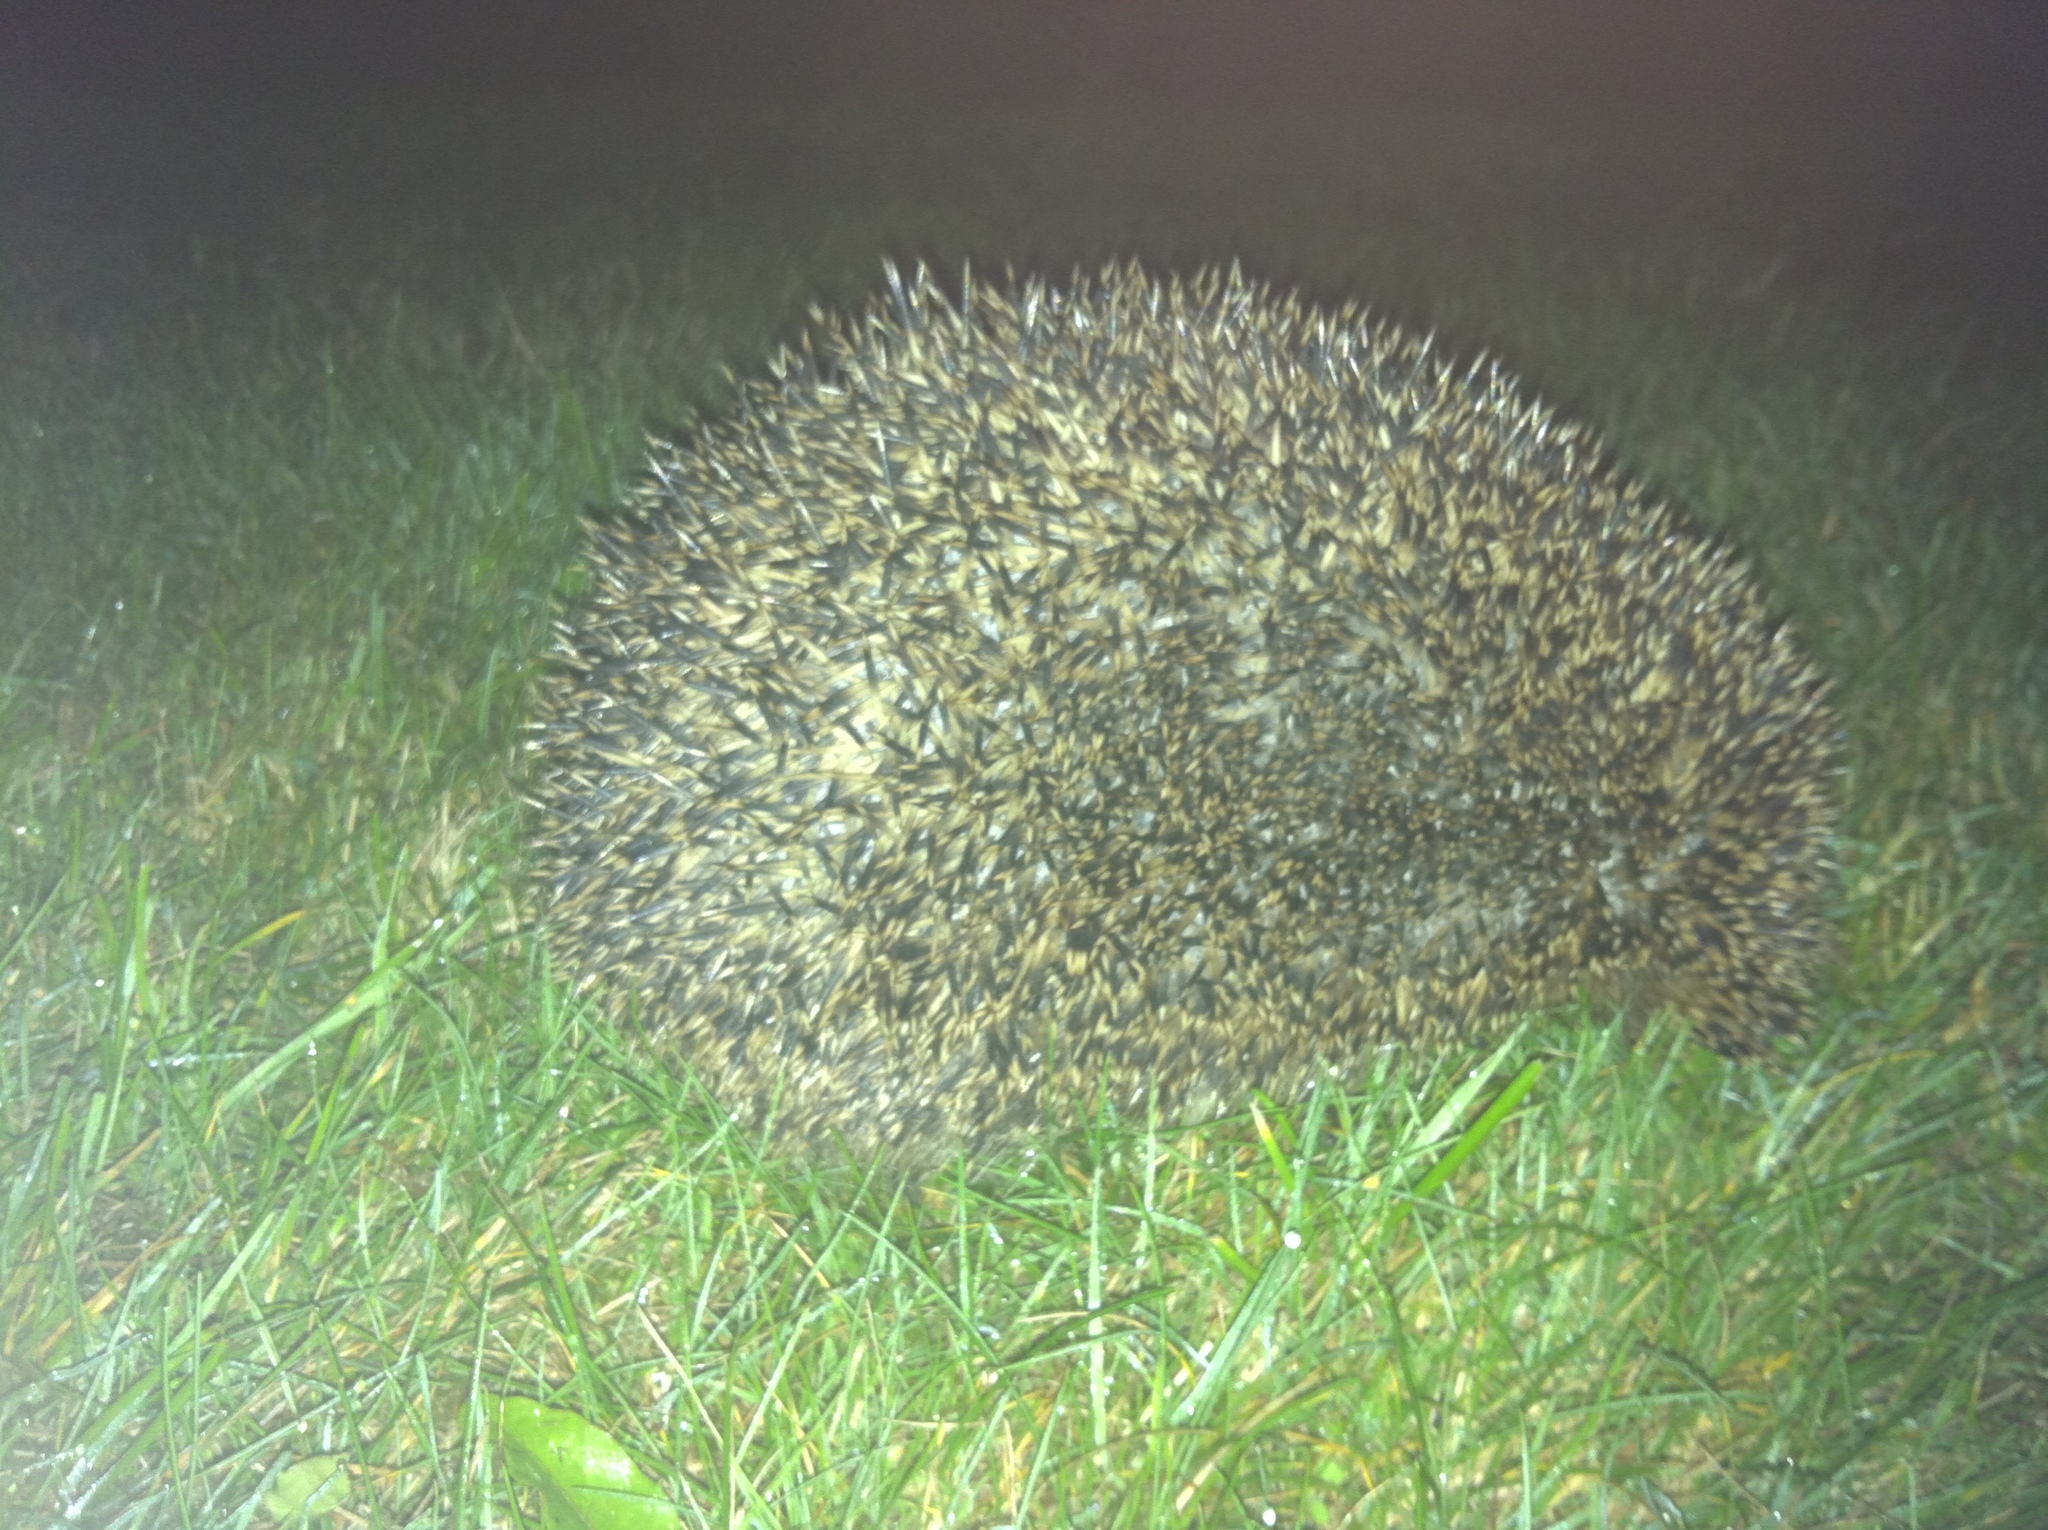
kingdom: Animalia
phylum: Chordata
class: Mammalia
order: Erinaceomorpha
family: Erinaceidae
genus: Erinaceus
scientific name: Erinaceus europaeus
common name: West european hedgehog
